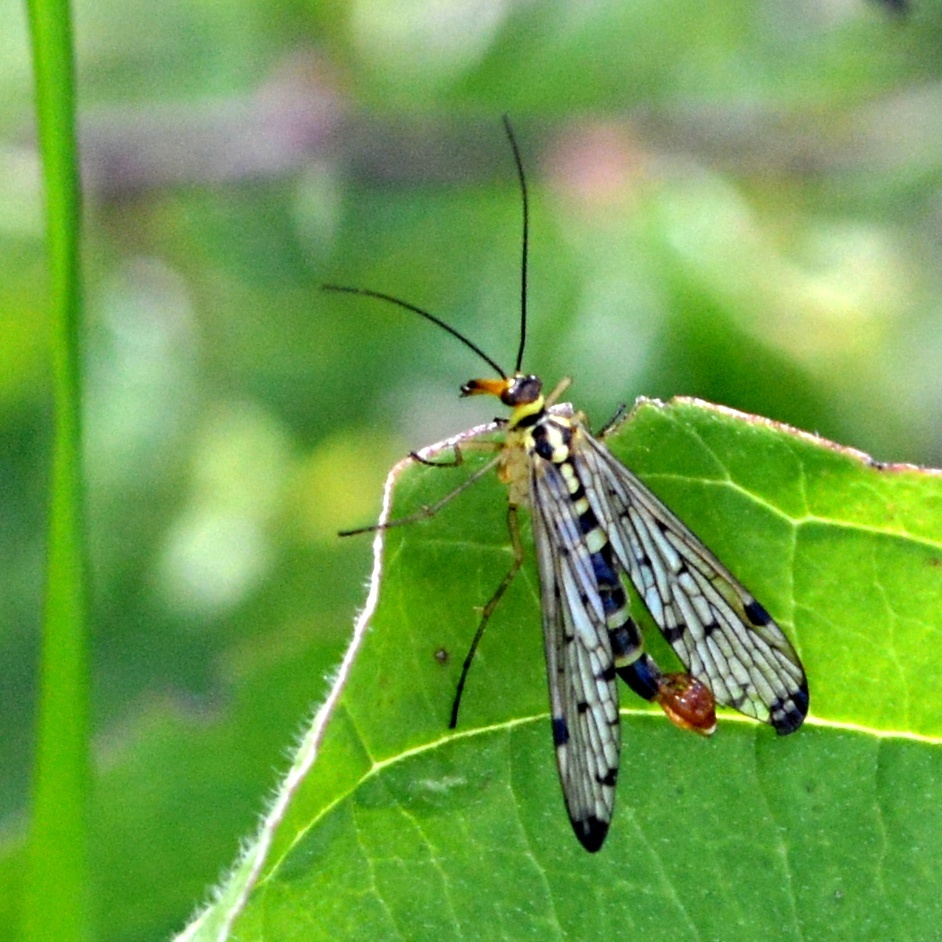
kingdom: Animalia
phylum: Arthropoda
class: Insecta
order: Mecoptera
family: Panorpidae
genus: Panorpa
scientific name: Panorpa germanica
